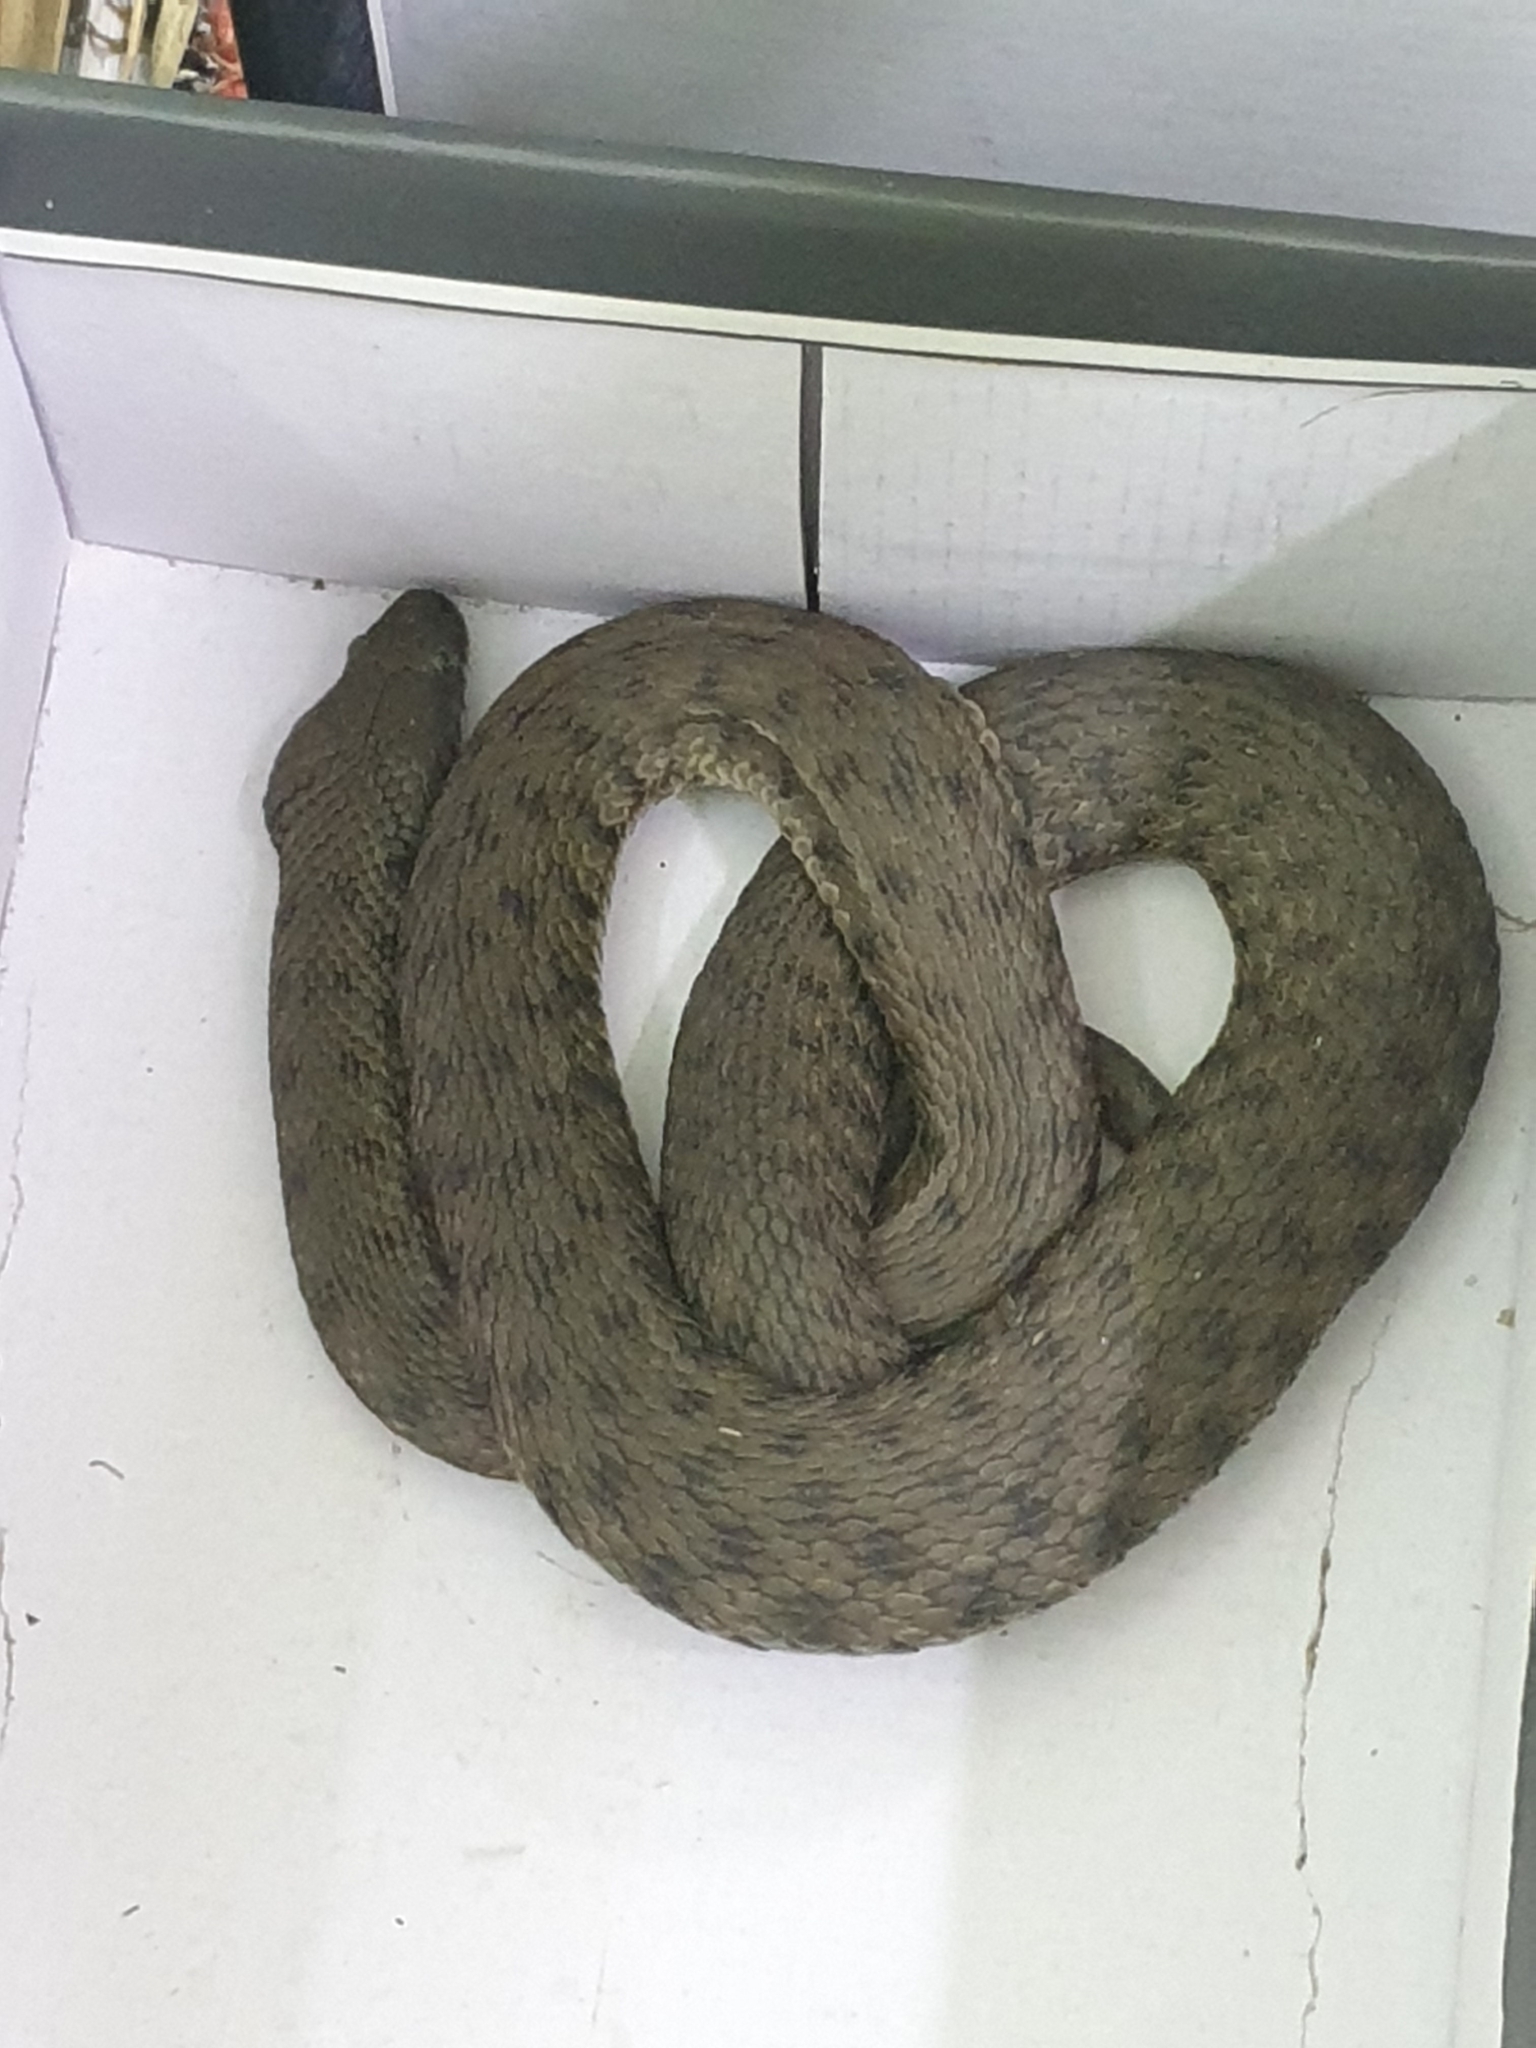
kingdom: Animalia
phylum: Chordata
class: Squamata
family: Colubridae
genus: Natrix
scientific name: Natrix tessellata
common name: Dice snake
